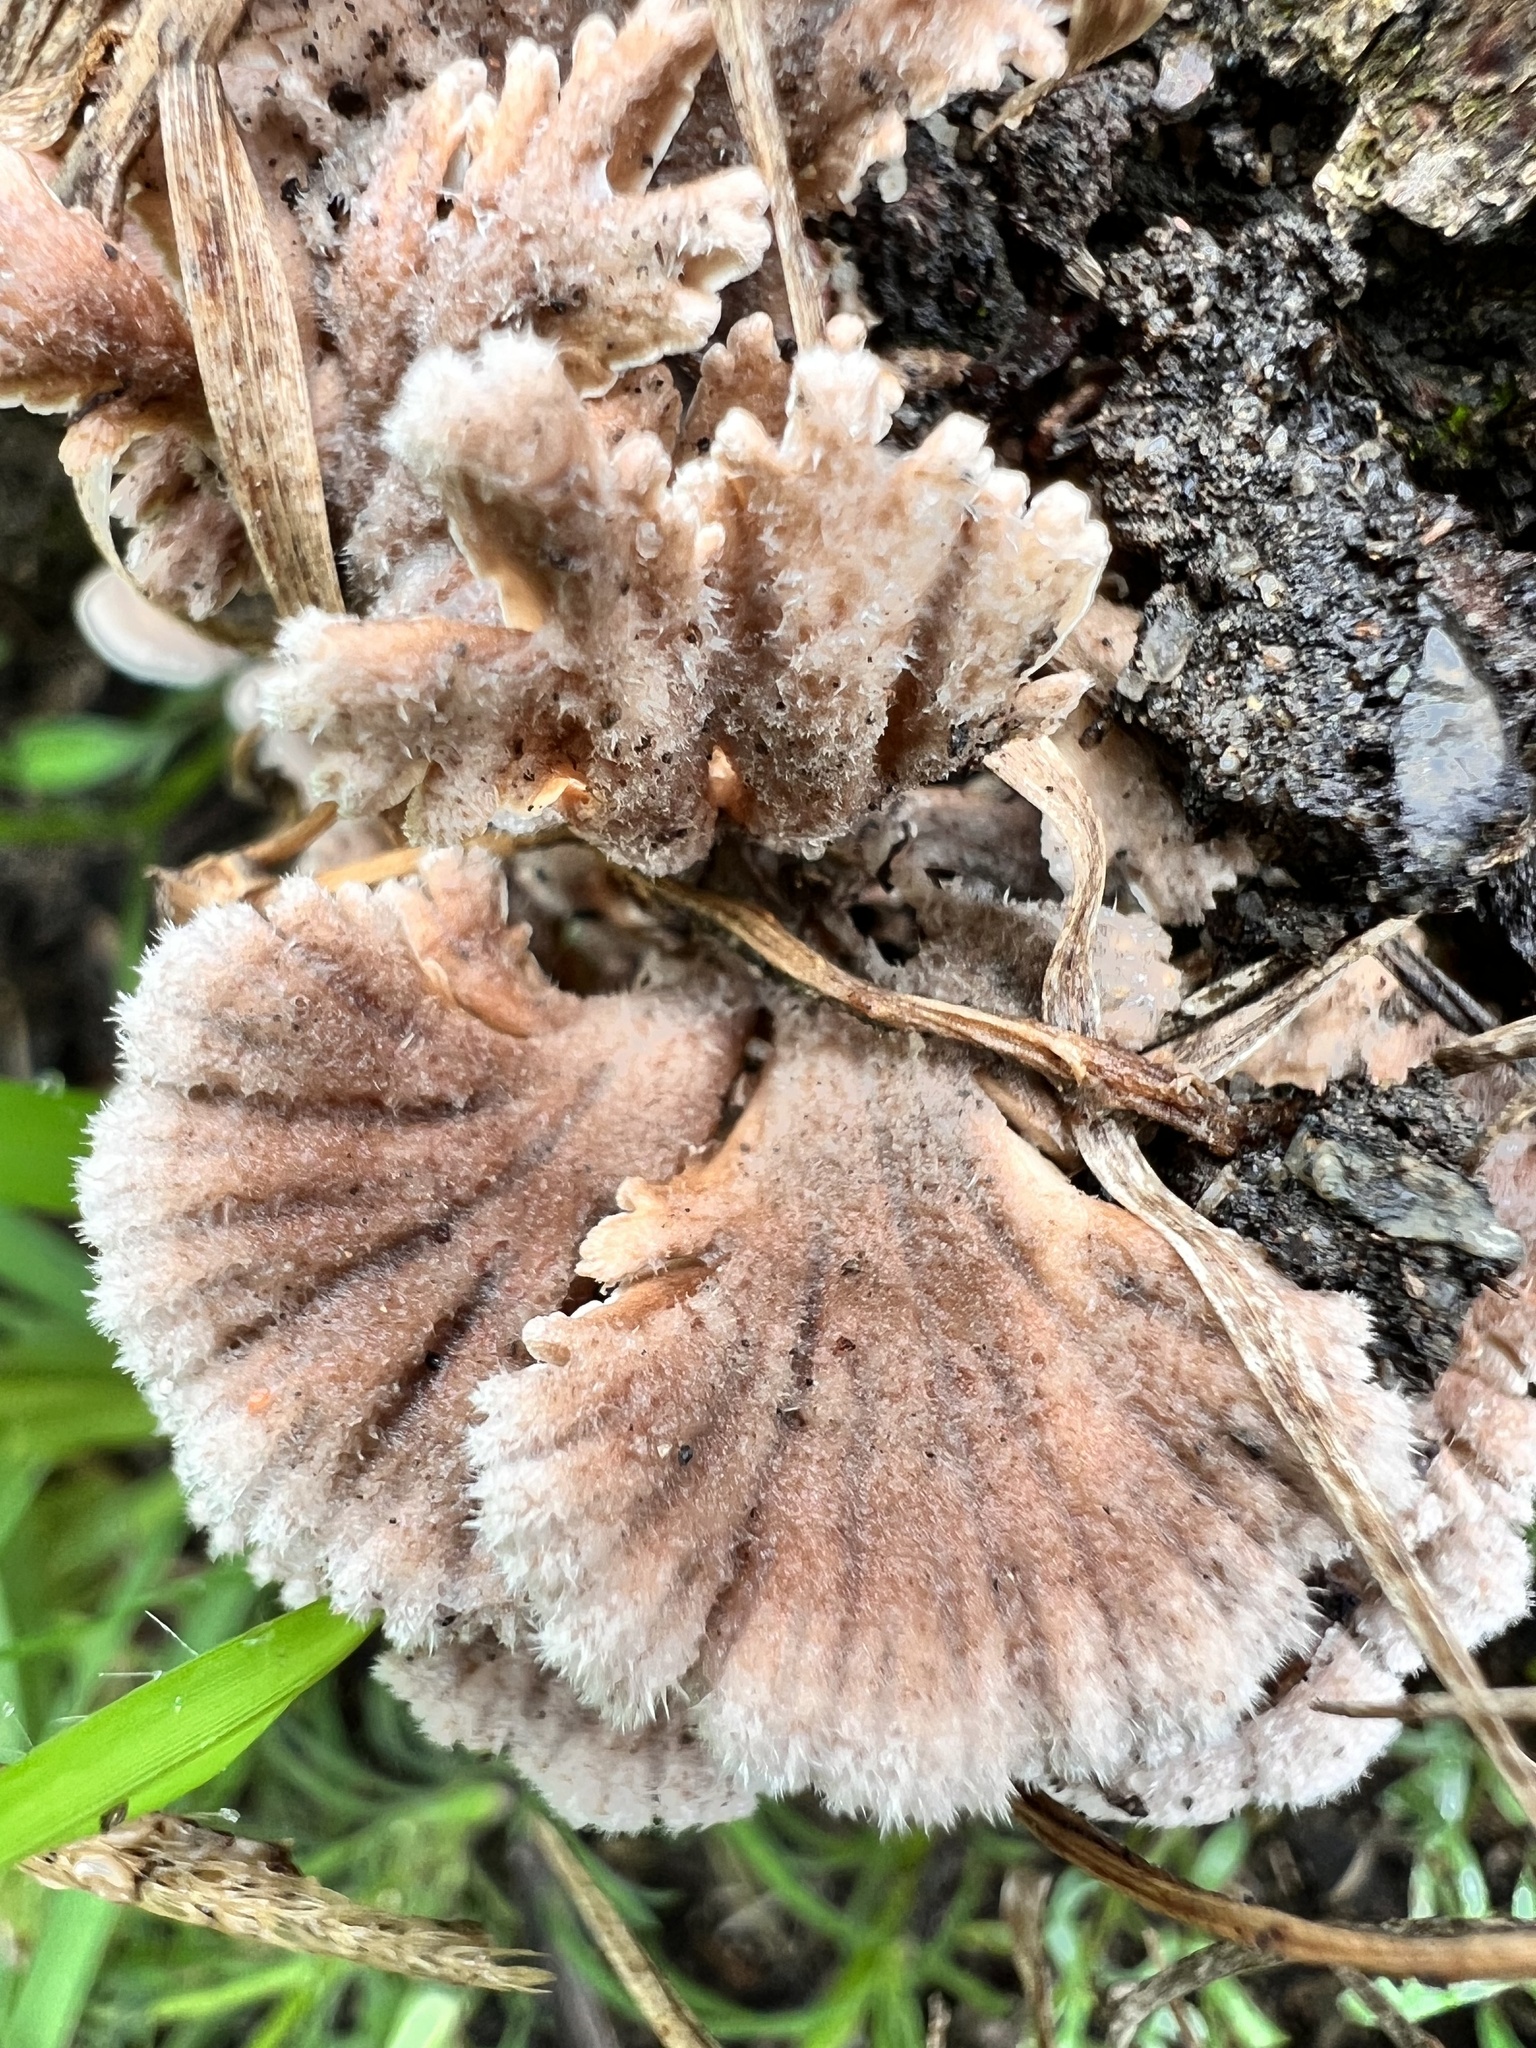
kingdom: Fungi
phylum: Basidiomycota
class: Agaricomycetes
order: Agaricales
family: Schizophyllaceae
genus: Schizophyllum
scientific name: Schizophyllum commune
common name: Common porecrust
